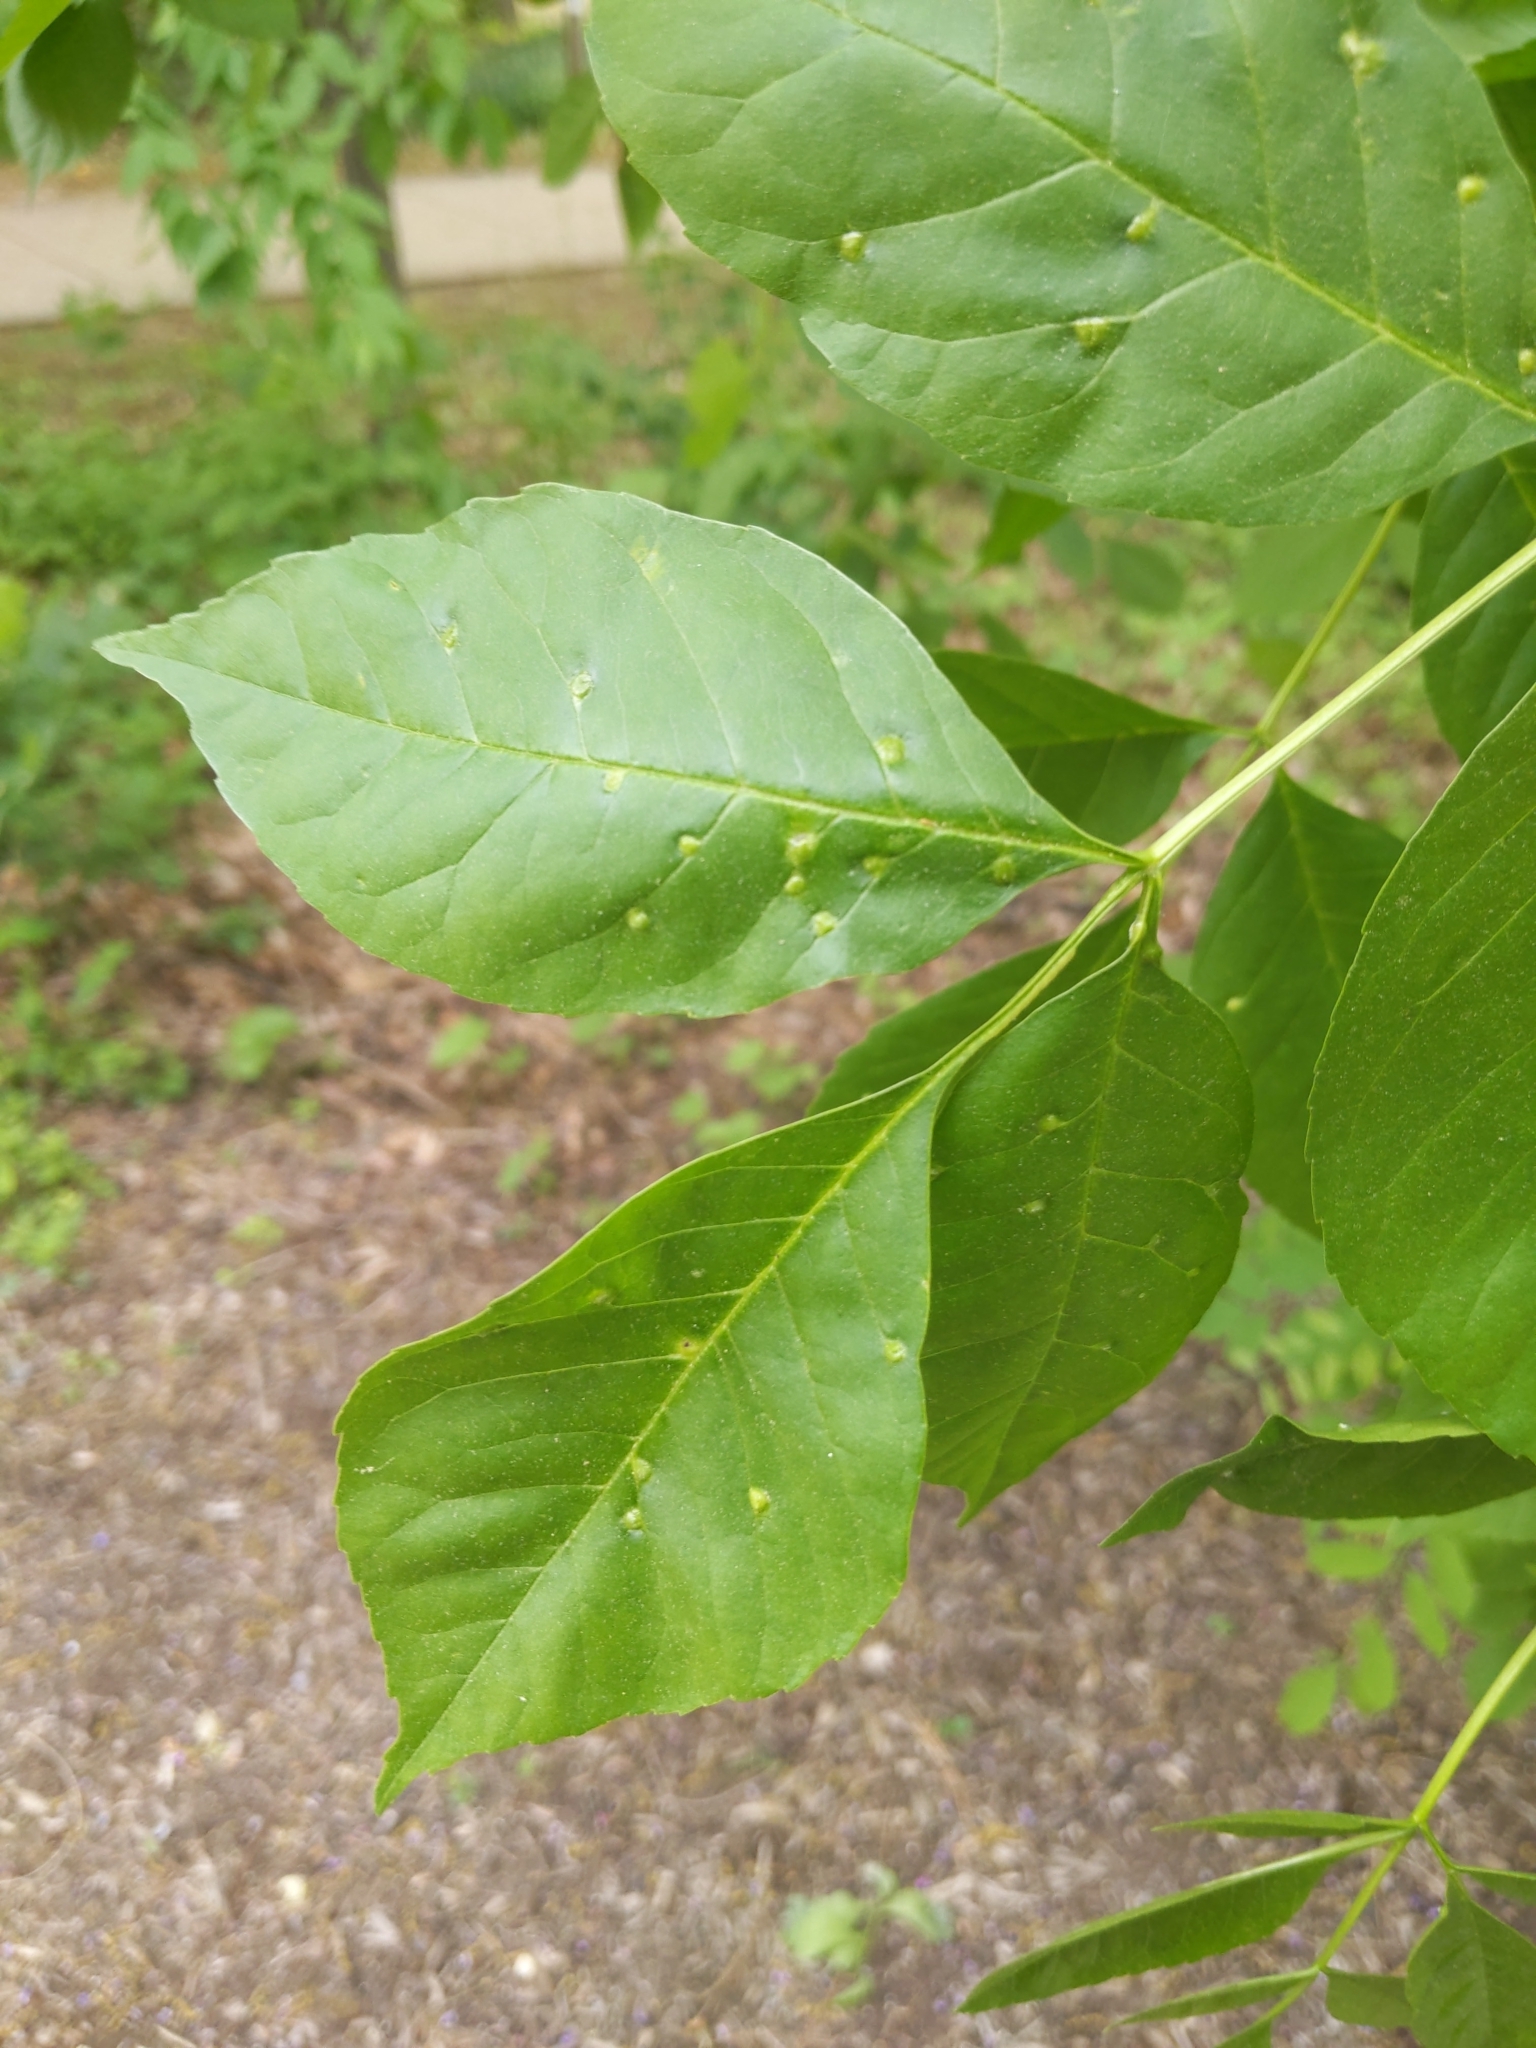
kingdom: Animalia
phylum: Arthropoda
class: Arachnida
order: Trombidiformes
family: Eriophyidae
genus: Aceria
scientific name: Aceria fraxinicola
